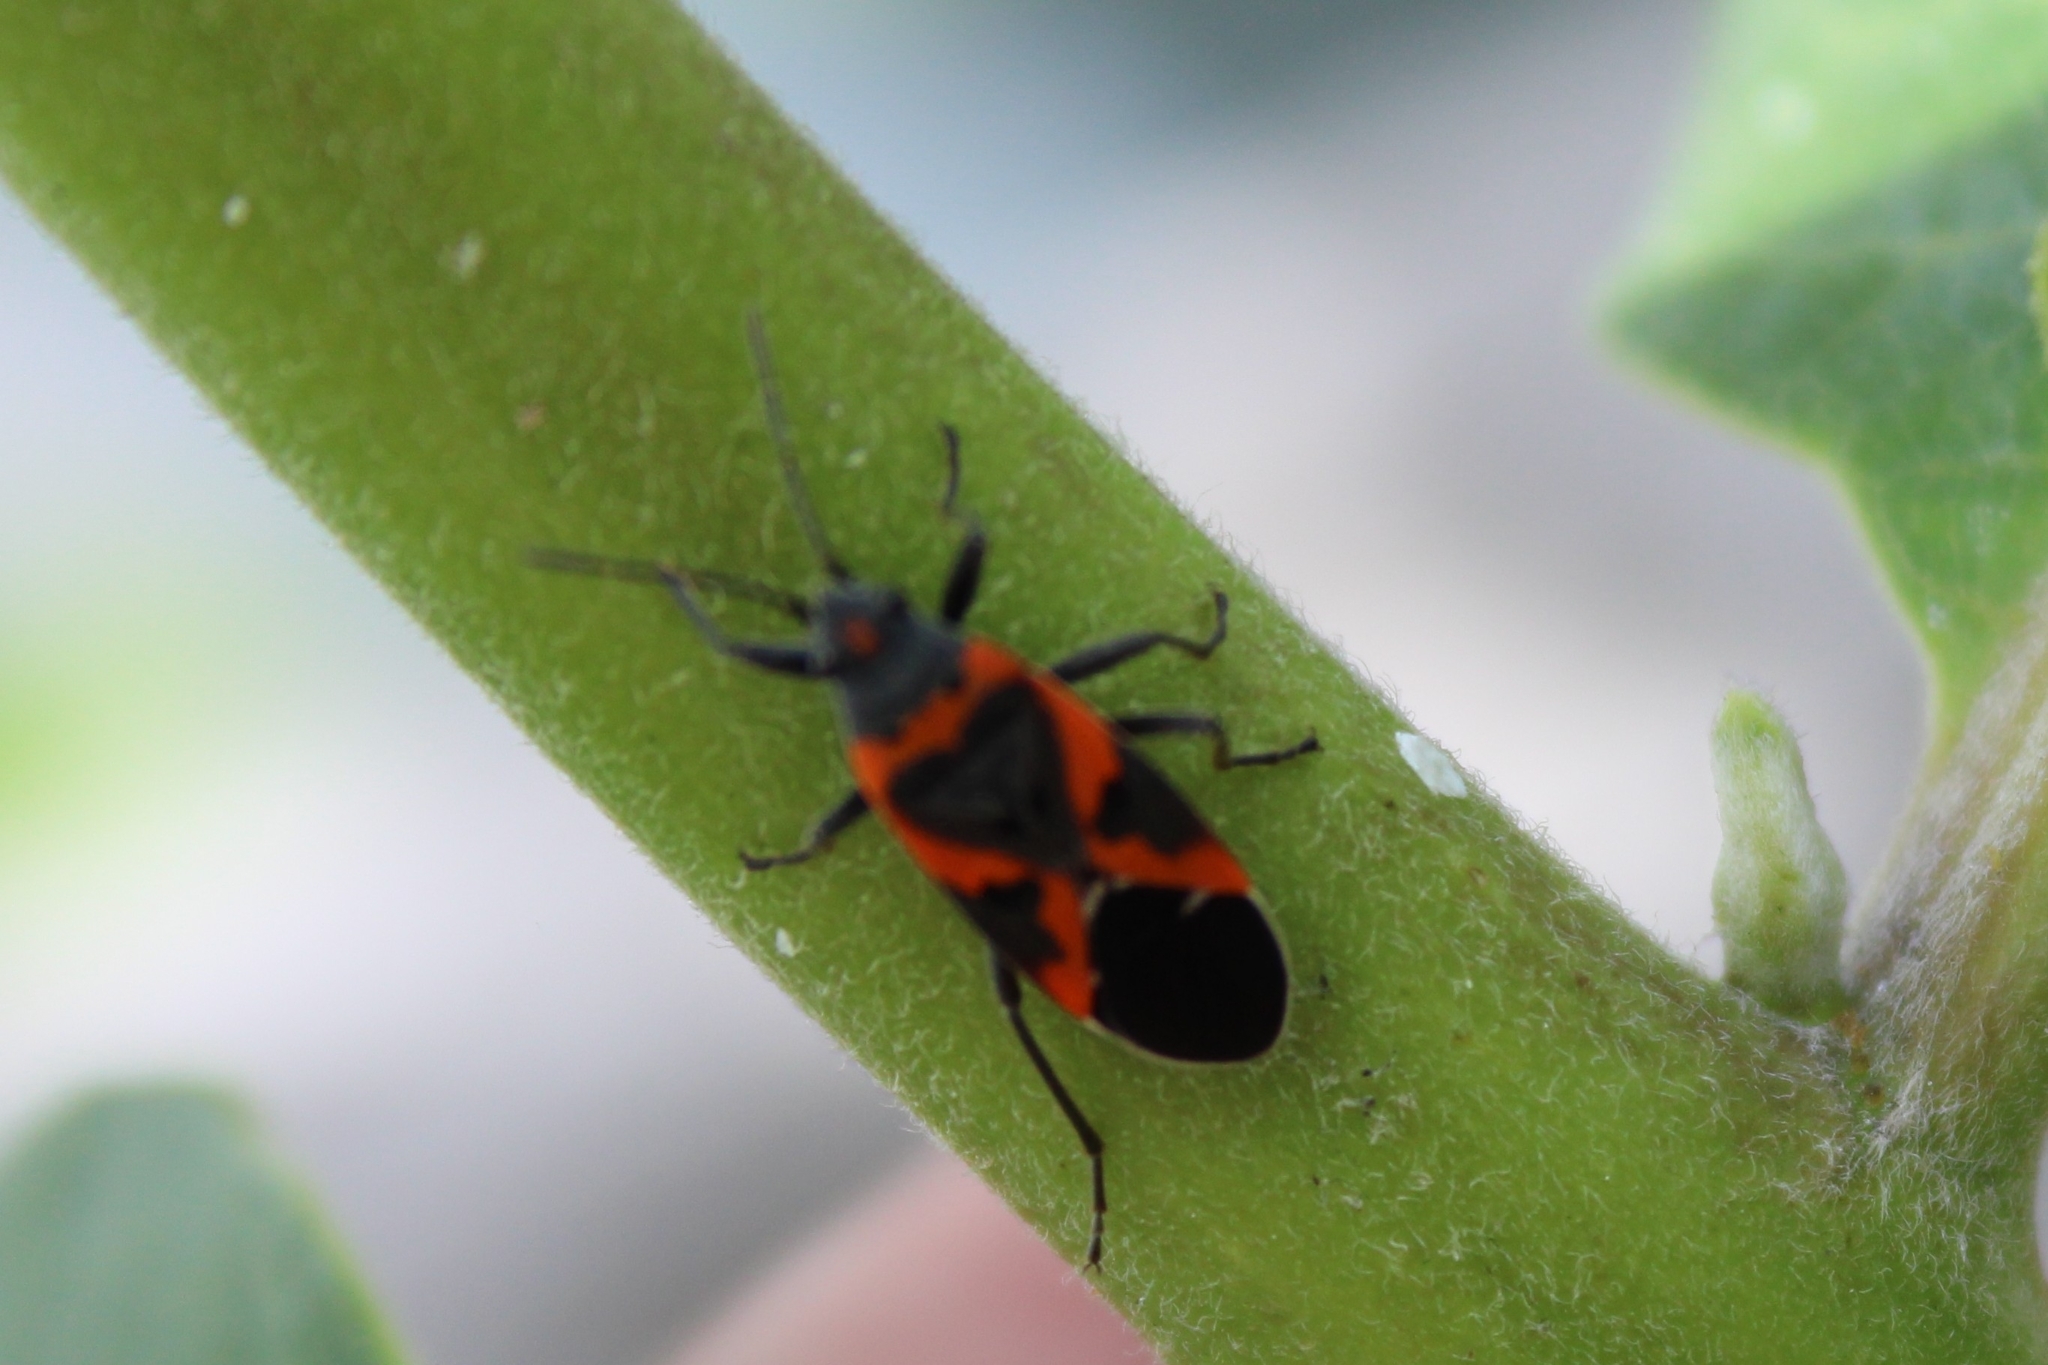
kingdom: Animalia
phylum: Arthropoda
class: Insecta
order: Hemiptera
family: Lygaeidae
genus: Lygaeus
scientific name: Lygaeus kalmii
